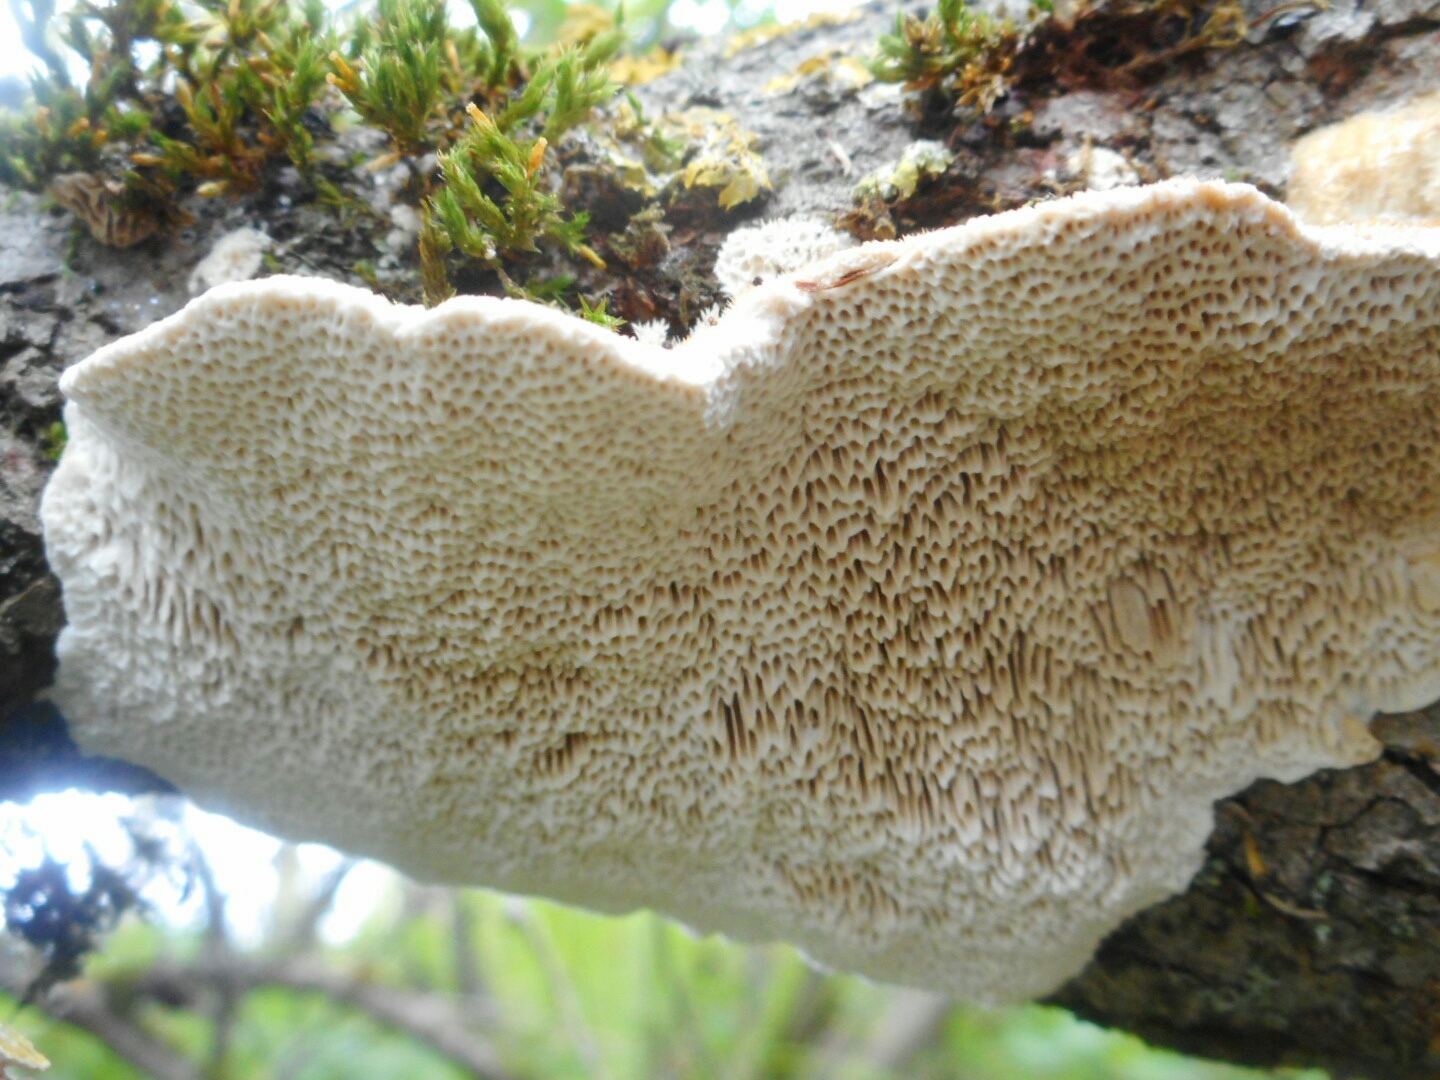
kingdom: Fungi
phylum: Basidiomycota
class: Agaricomycetes
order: Polyporales
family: Polyporaceae
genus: Trametes
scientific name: Trametes trogii
